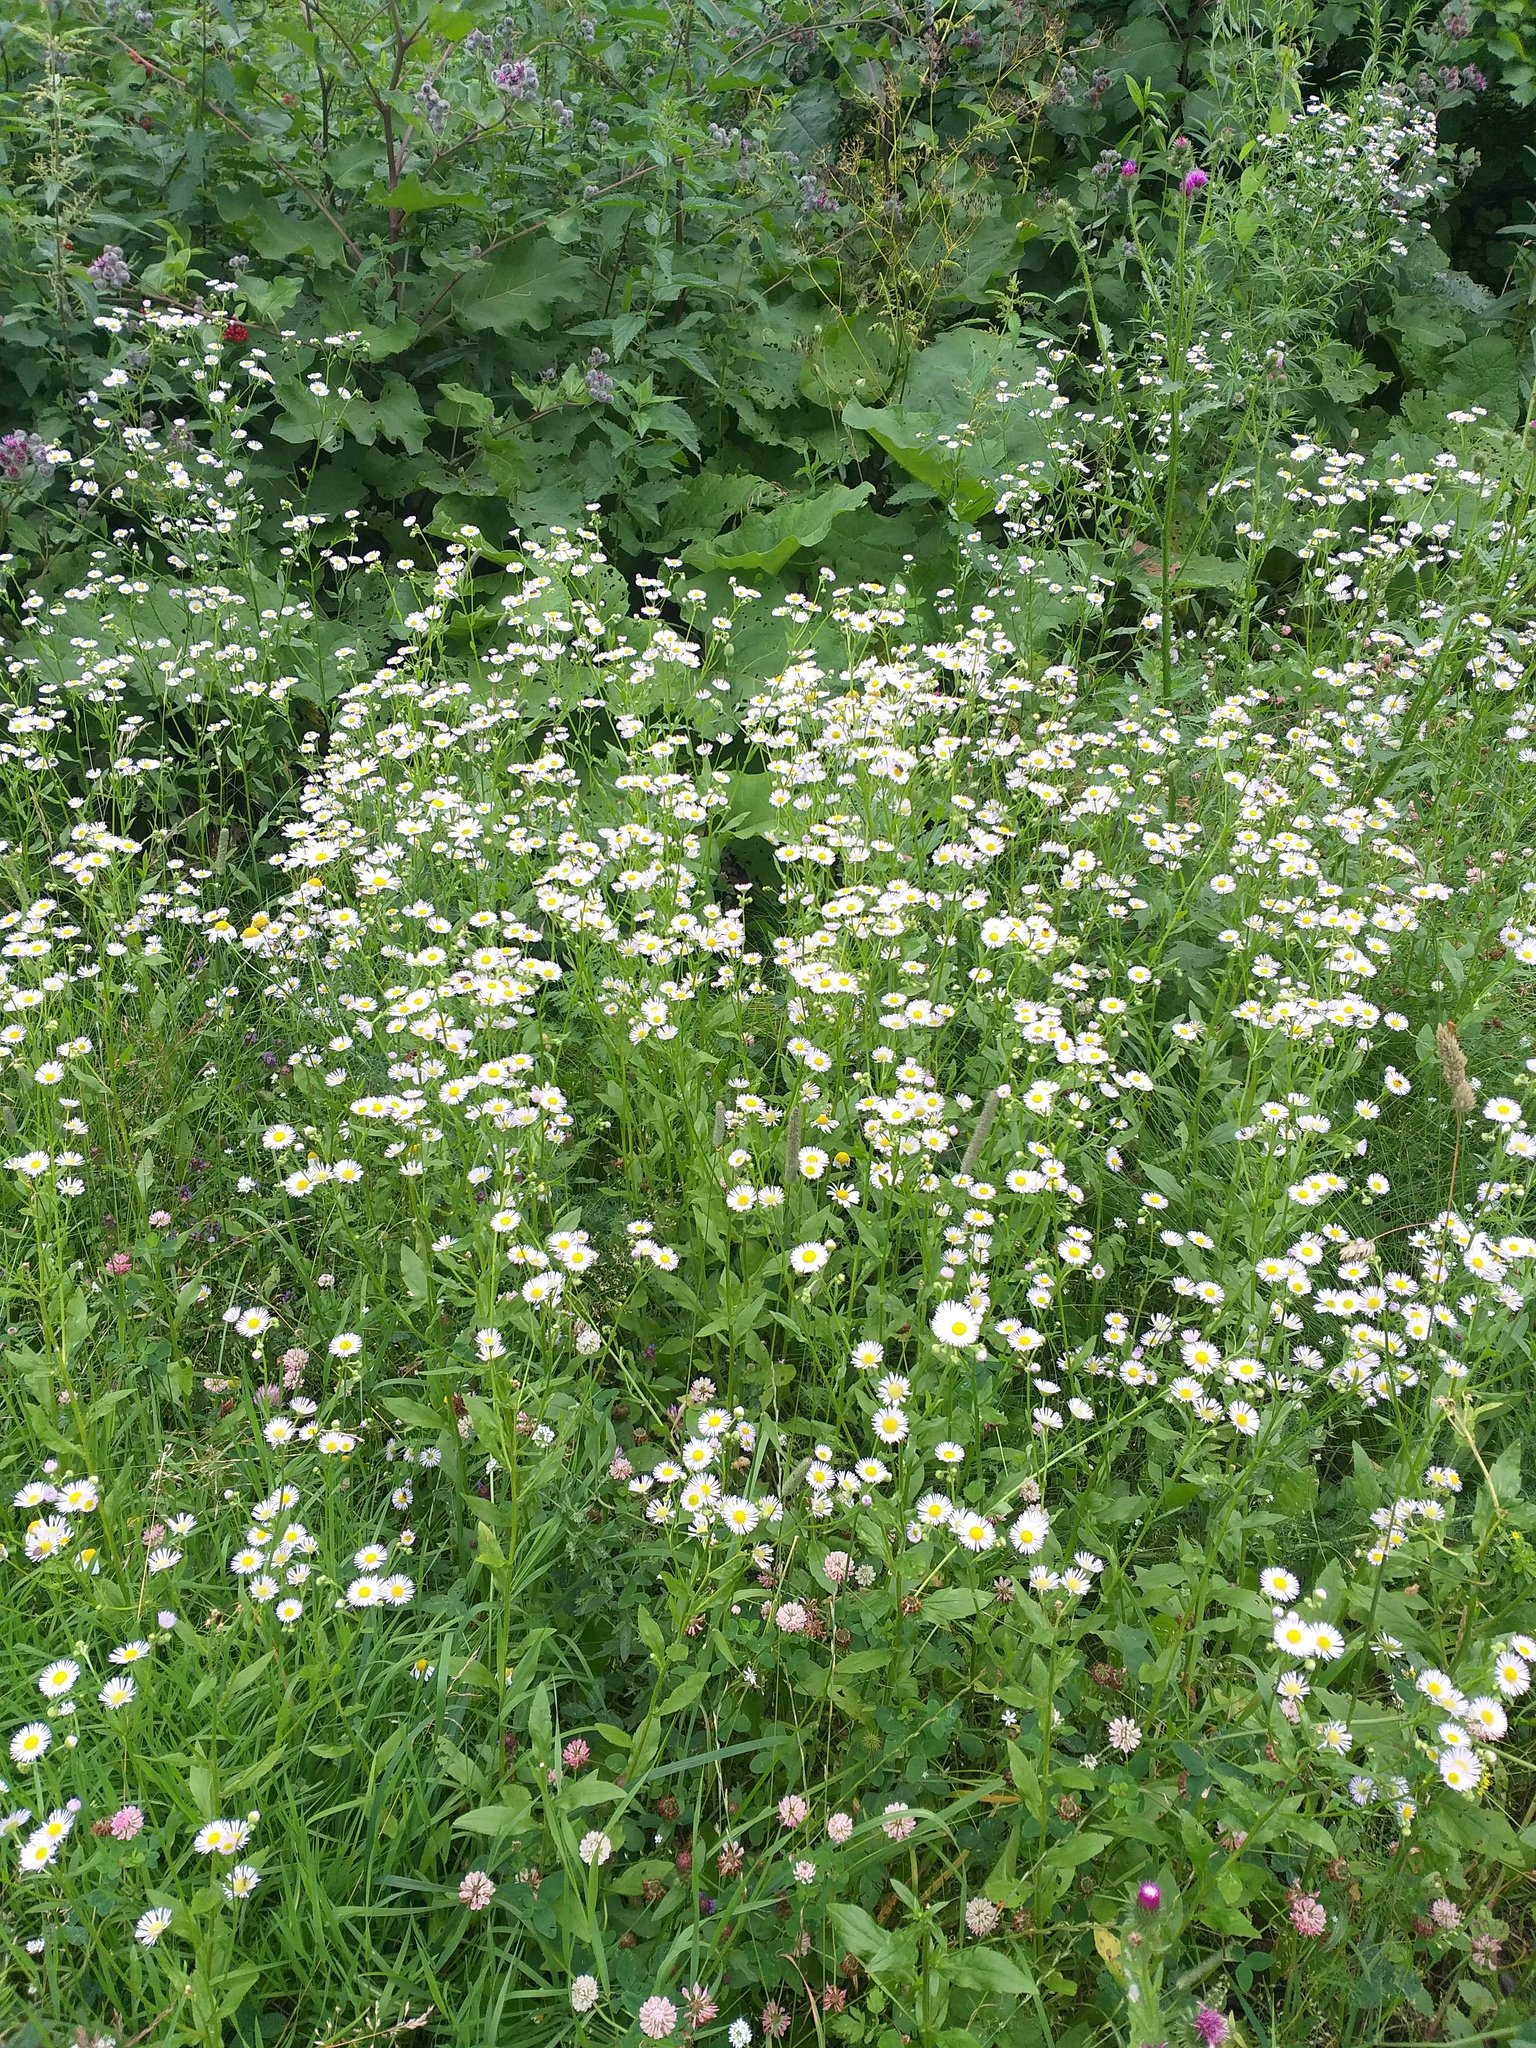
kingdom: Plantae
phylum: Tracheophyta
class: Magnoliopsida
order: Asterales
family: Asteraceae
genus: Erigeron
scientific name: Erigeron annuus
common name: Tall fleabane
